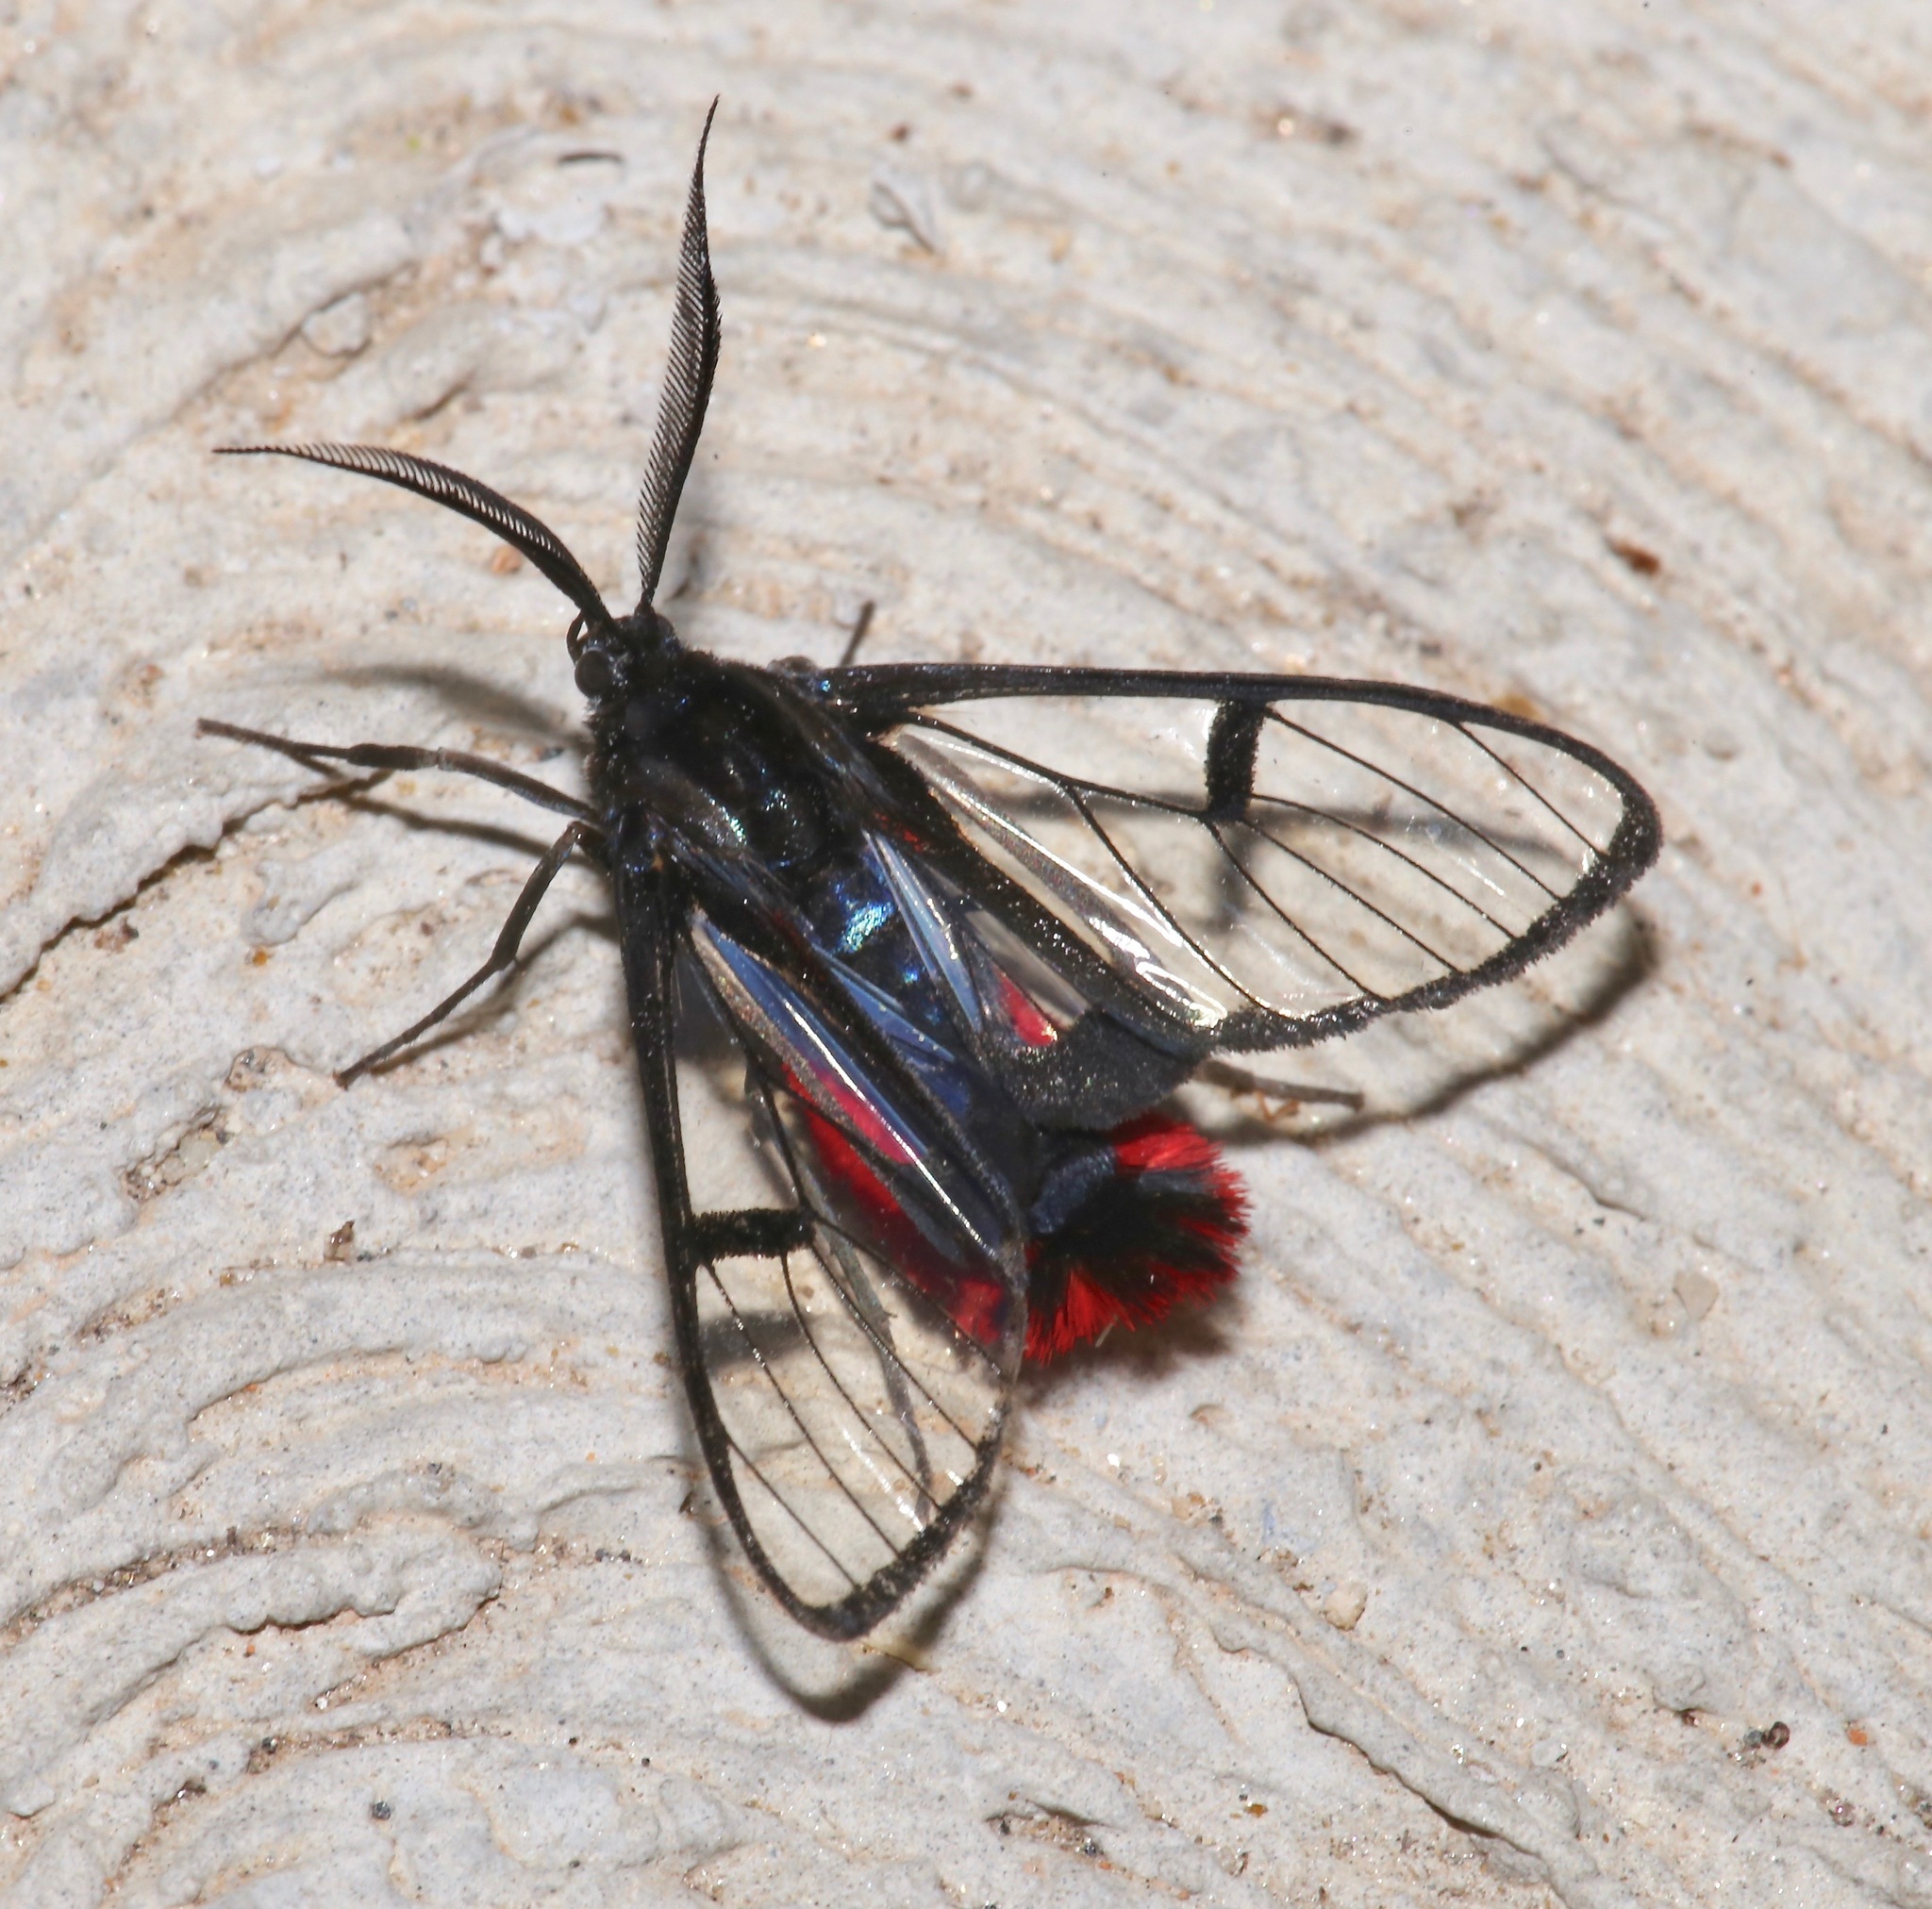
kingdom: Animalia
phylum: Arthropoda
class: Insecta
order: Lepidoptera
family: Erebidae
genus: Dinia
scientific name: Dinia eagrus
